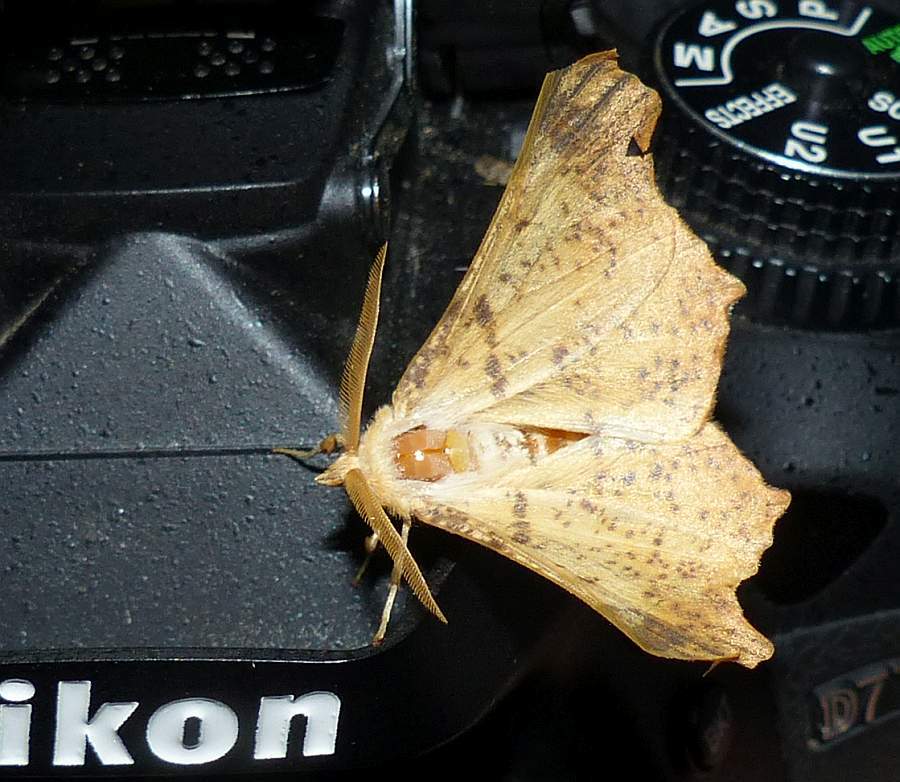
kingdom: Animalia
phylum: Arthropoda
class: Insecta
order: Lepidoptera
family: Geometridae
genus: Ennomos
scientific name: Ennomos magnaria
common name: Maple spanworm
